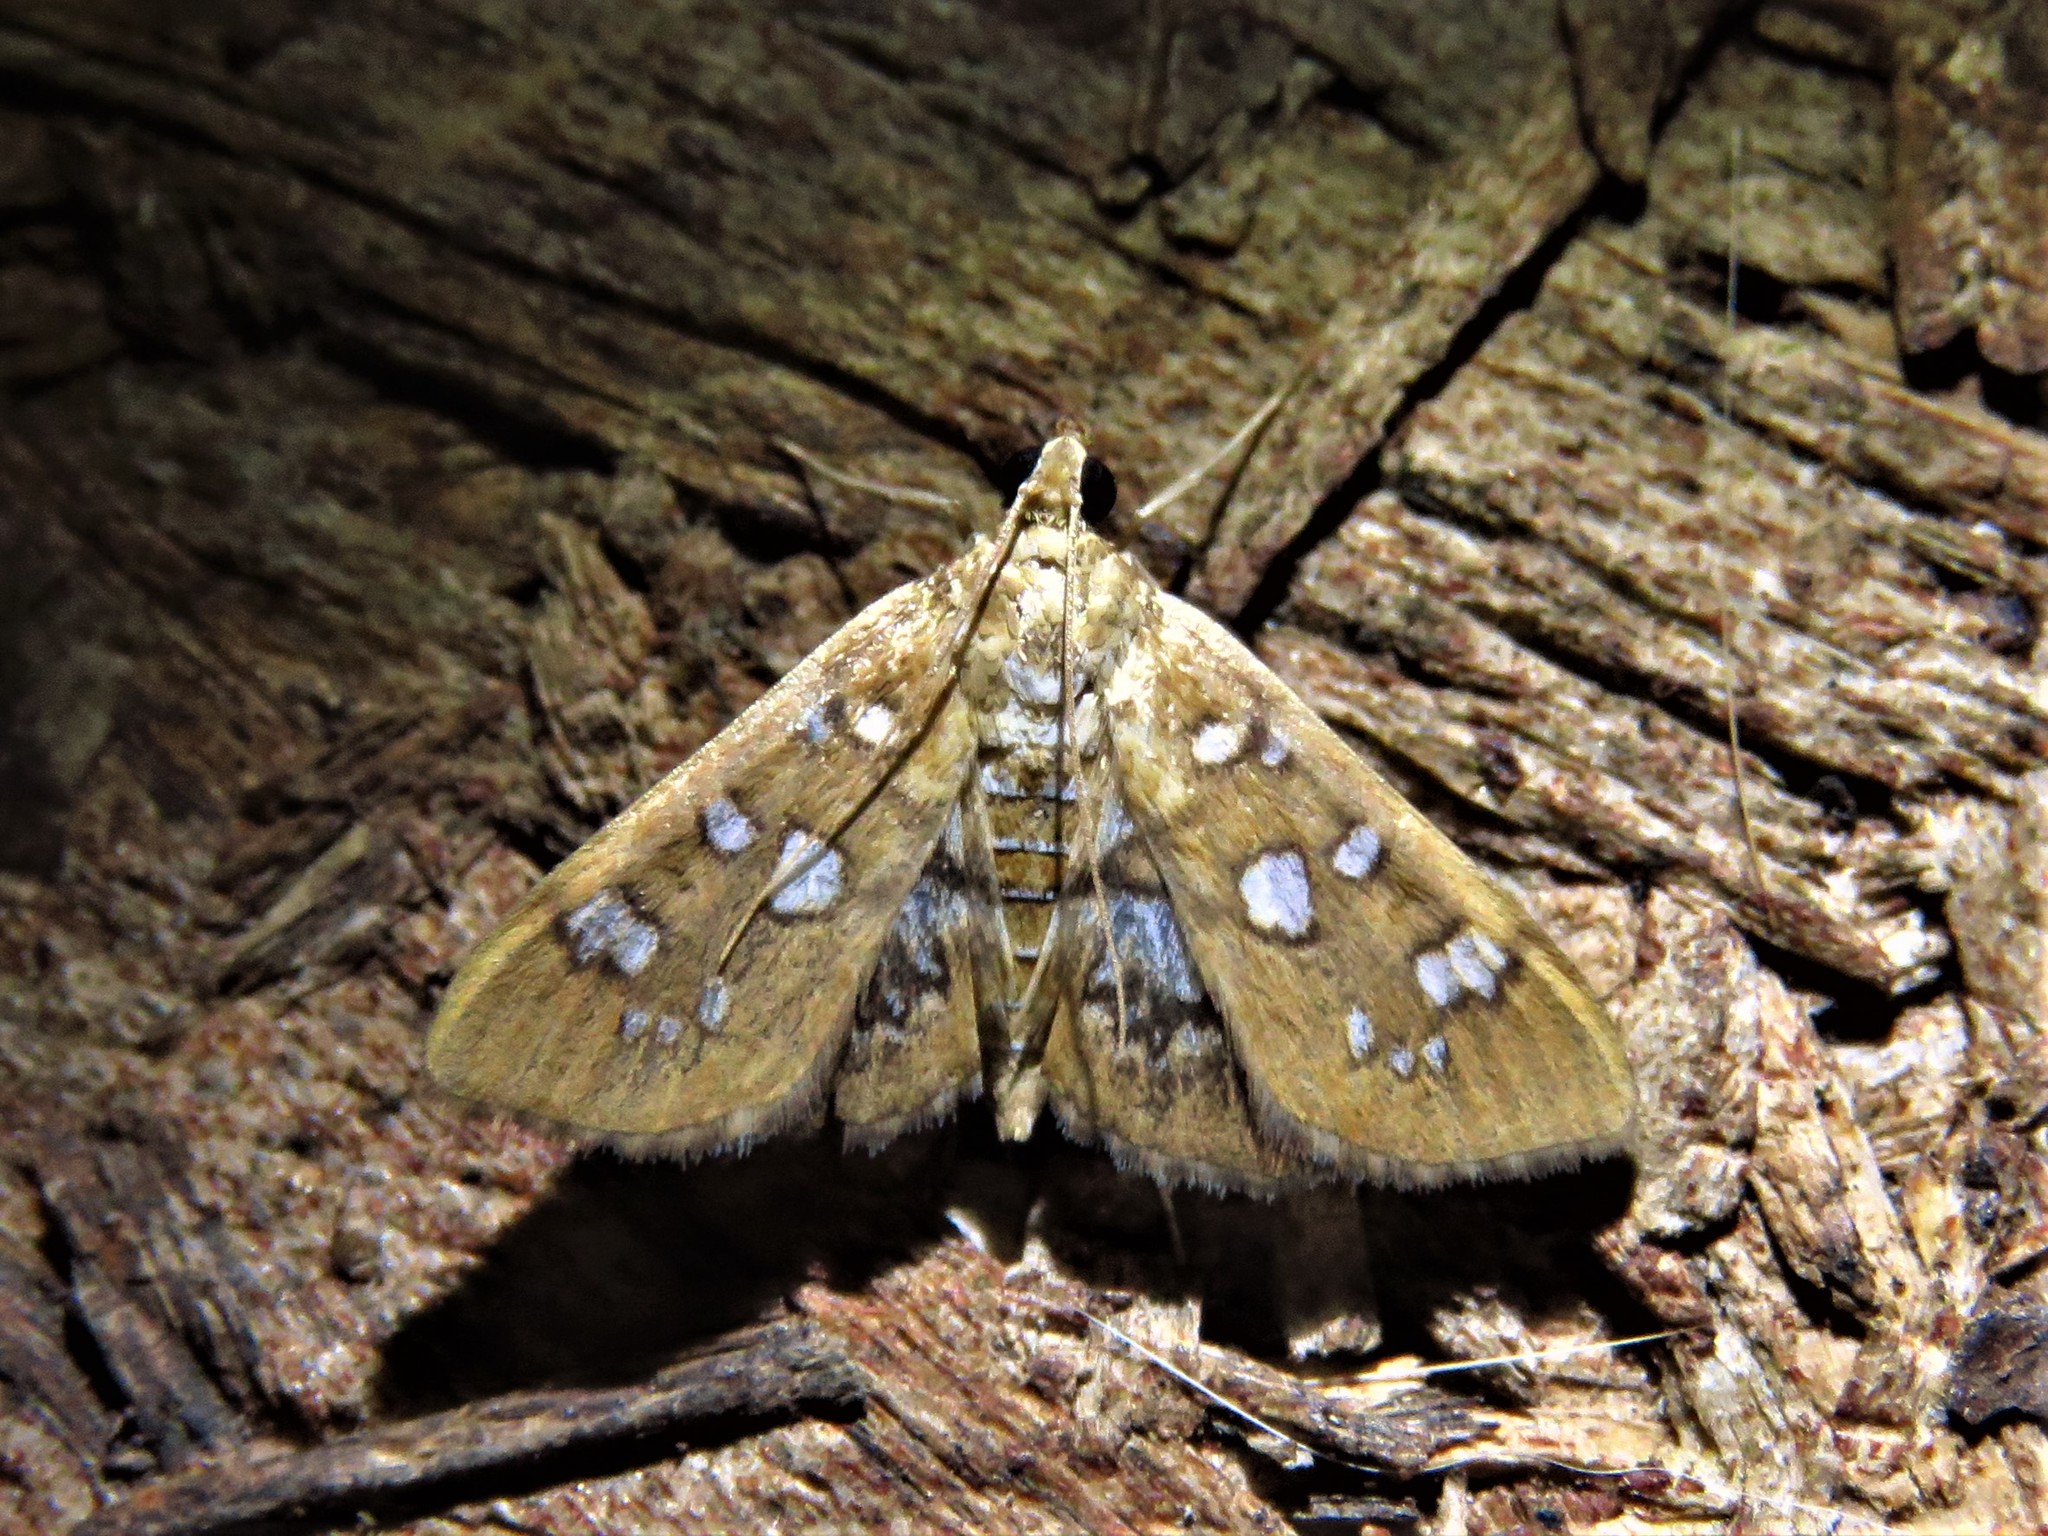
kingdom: Animalia
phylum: Arthropoda
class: Insecta
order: Lepidoptera
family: Crambidae
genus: Samea
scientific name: Samea baccatalis
